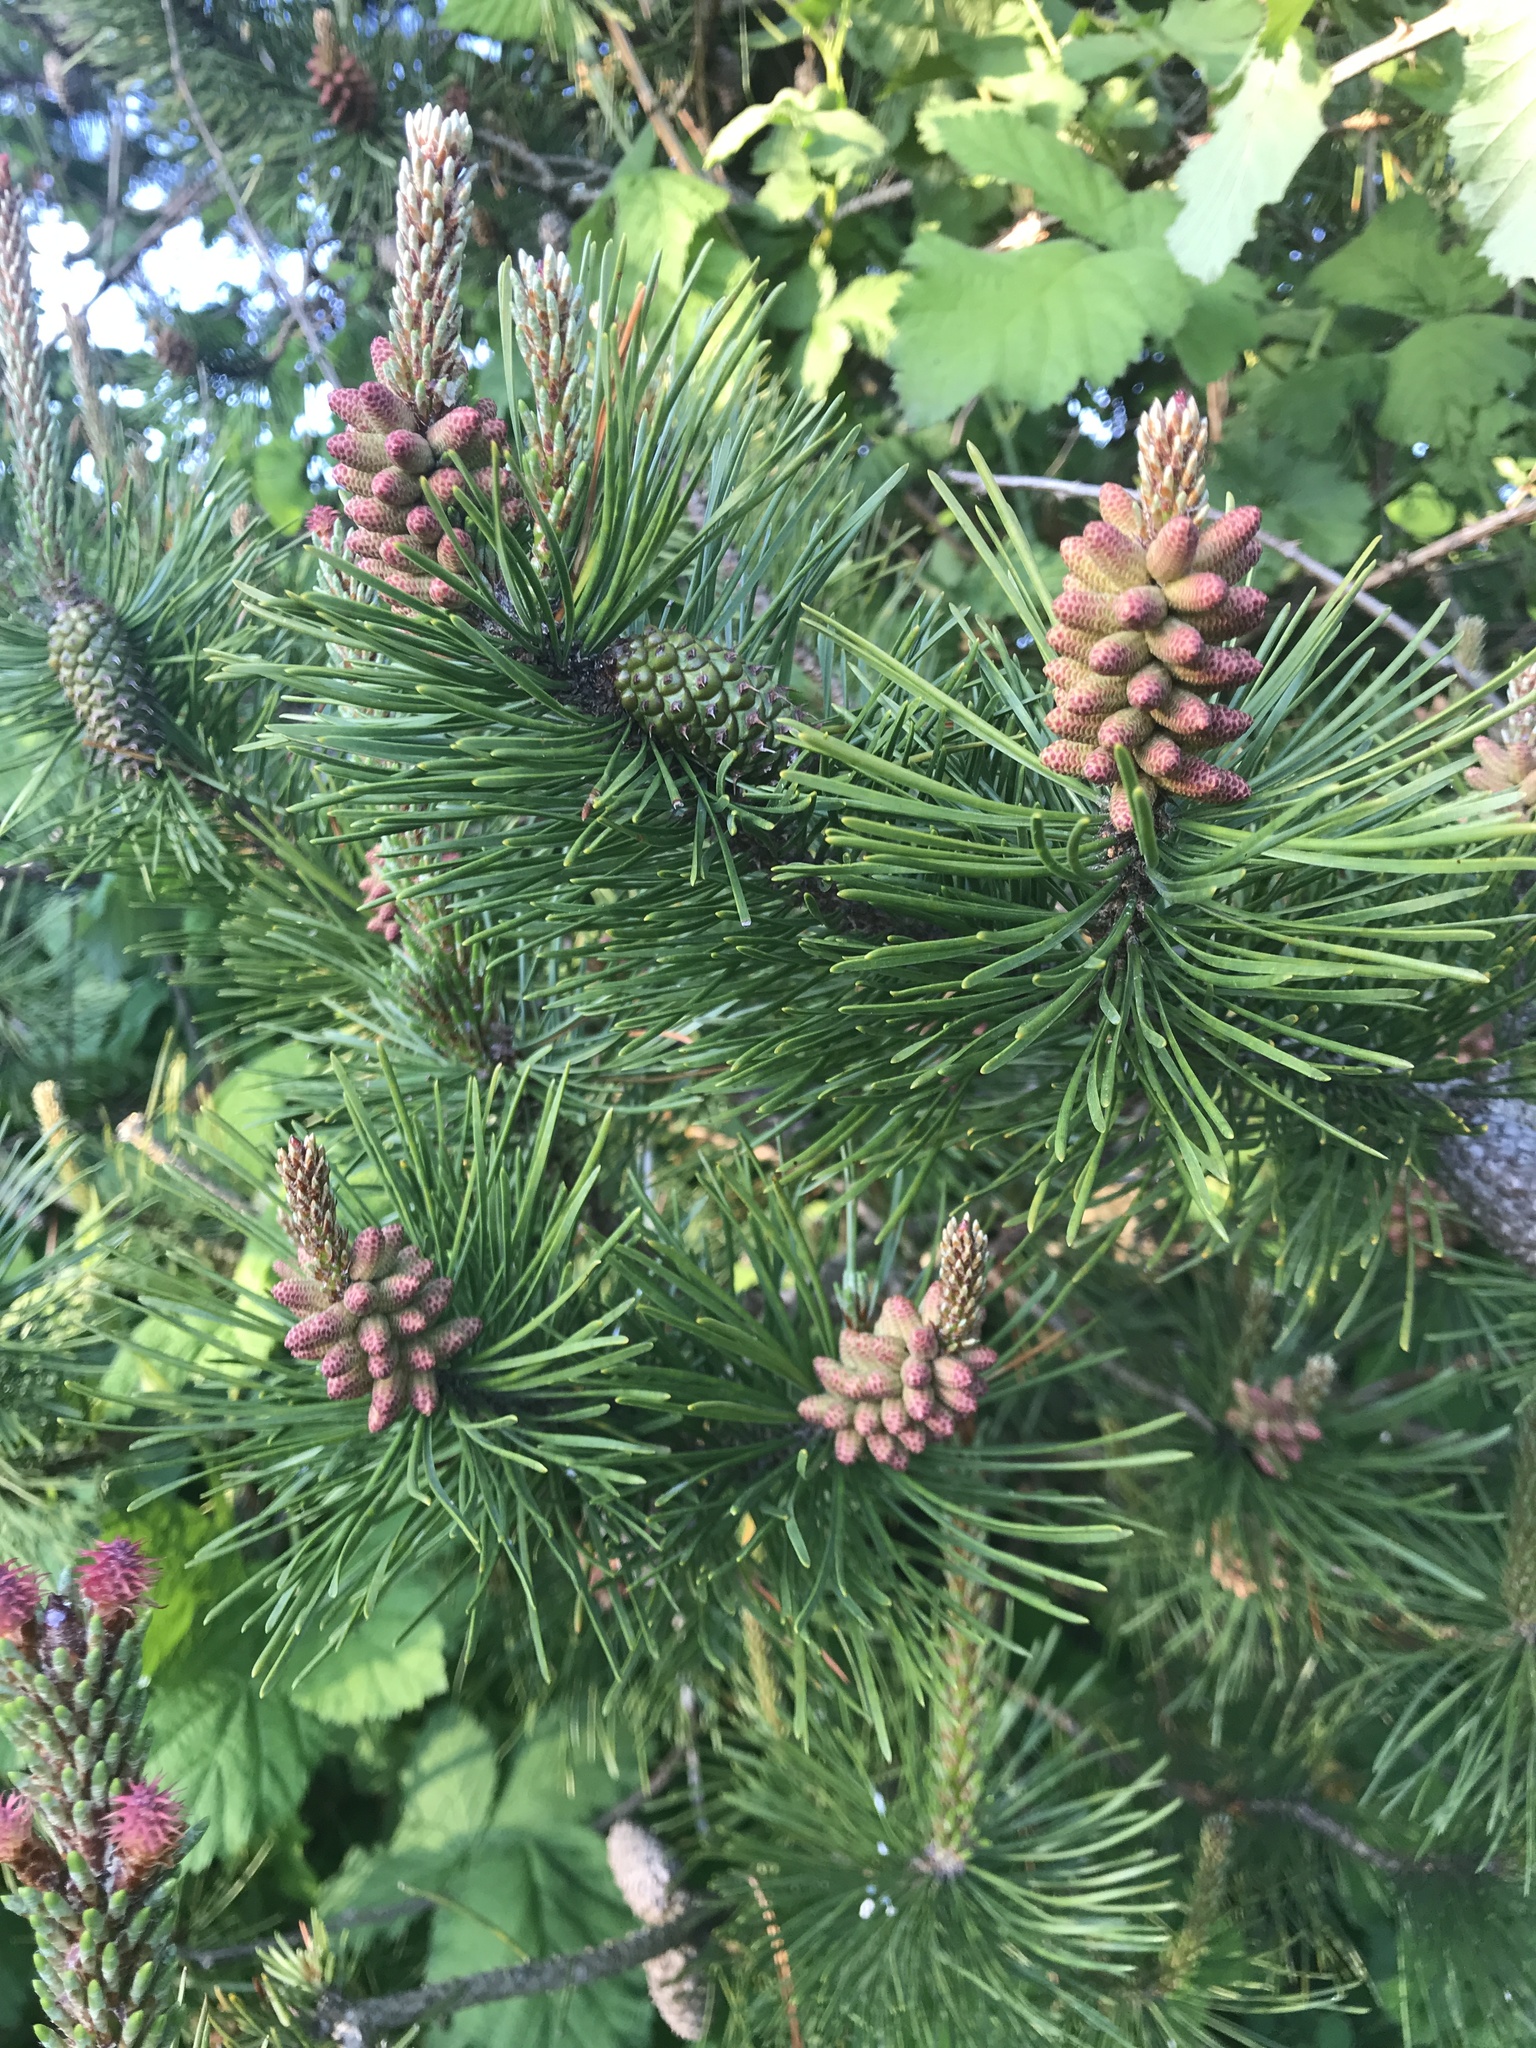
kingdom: Plantae
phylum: Tracheophyta
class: Pinopsida
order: Pinales
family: Pinaceae
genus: Pinus
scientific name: Pinus contorta
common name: Lodgepole pine
